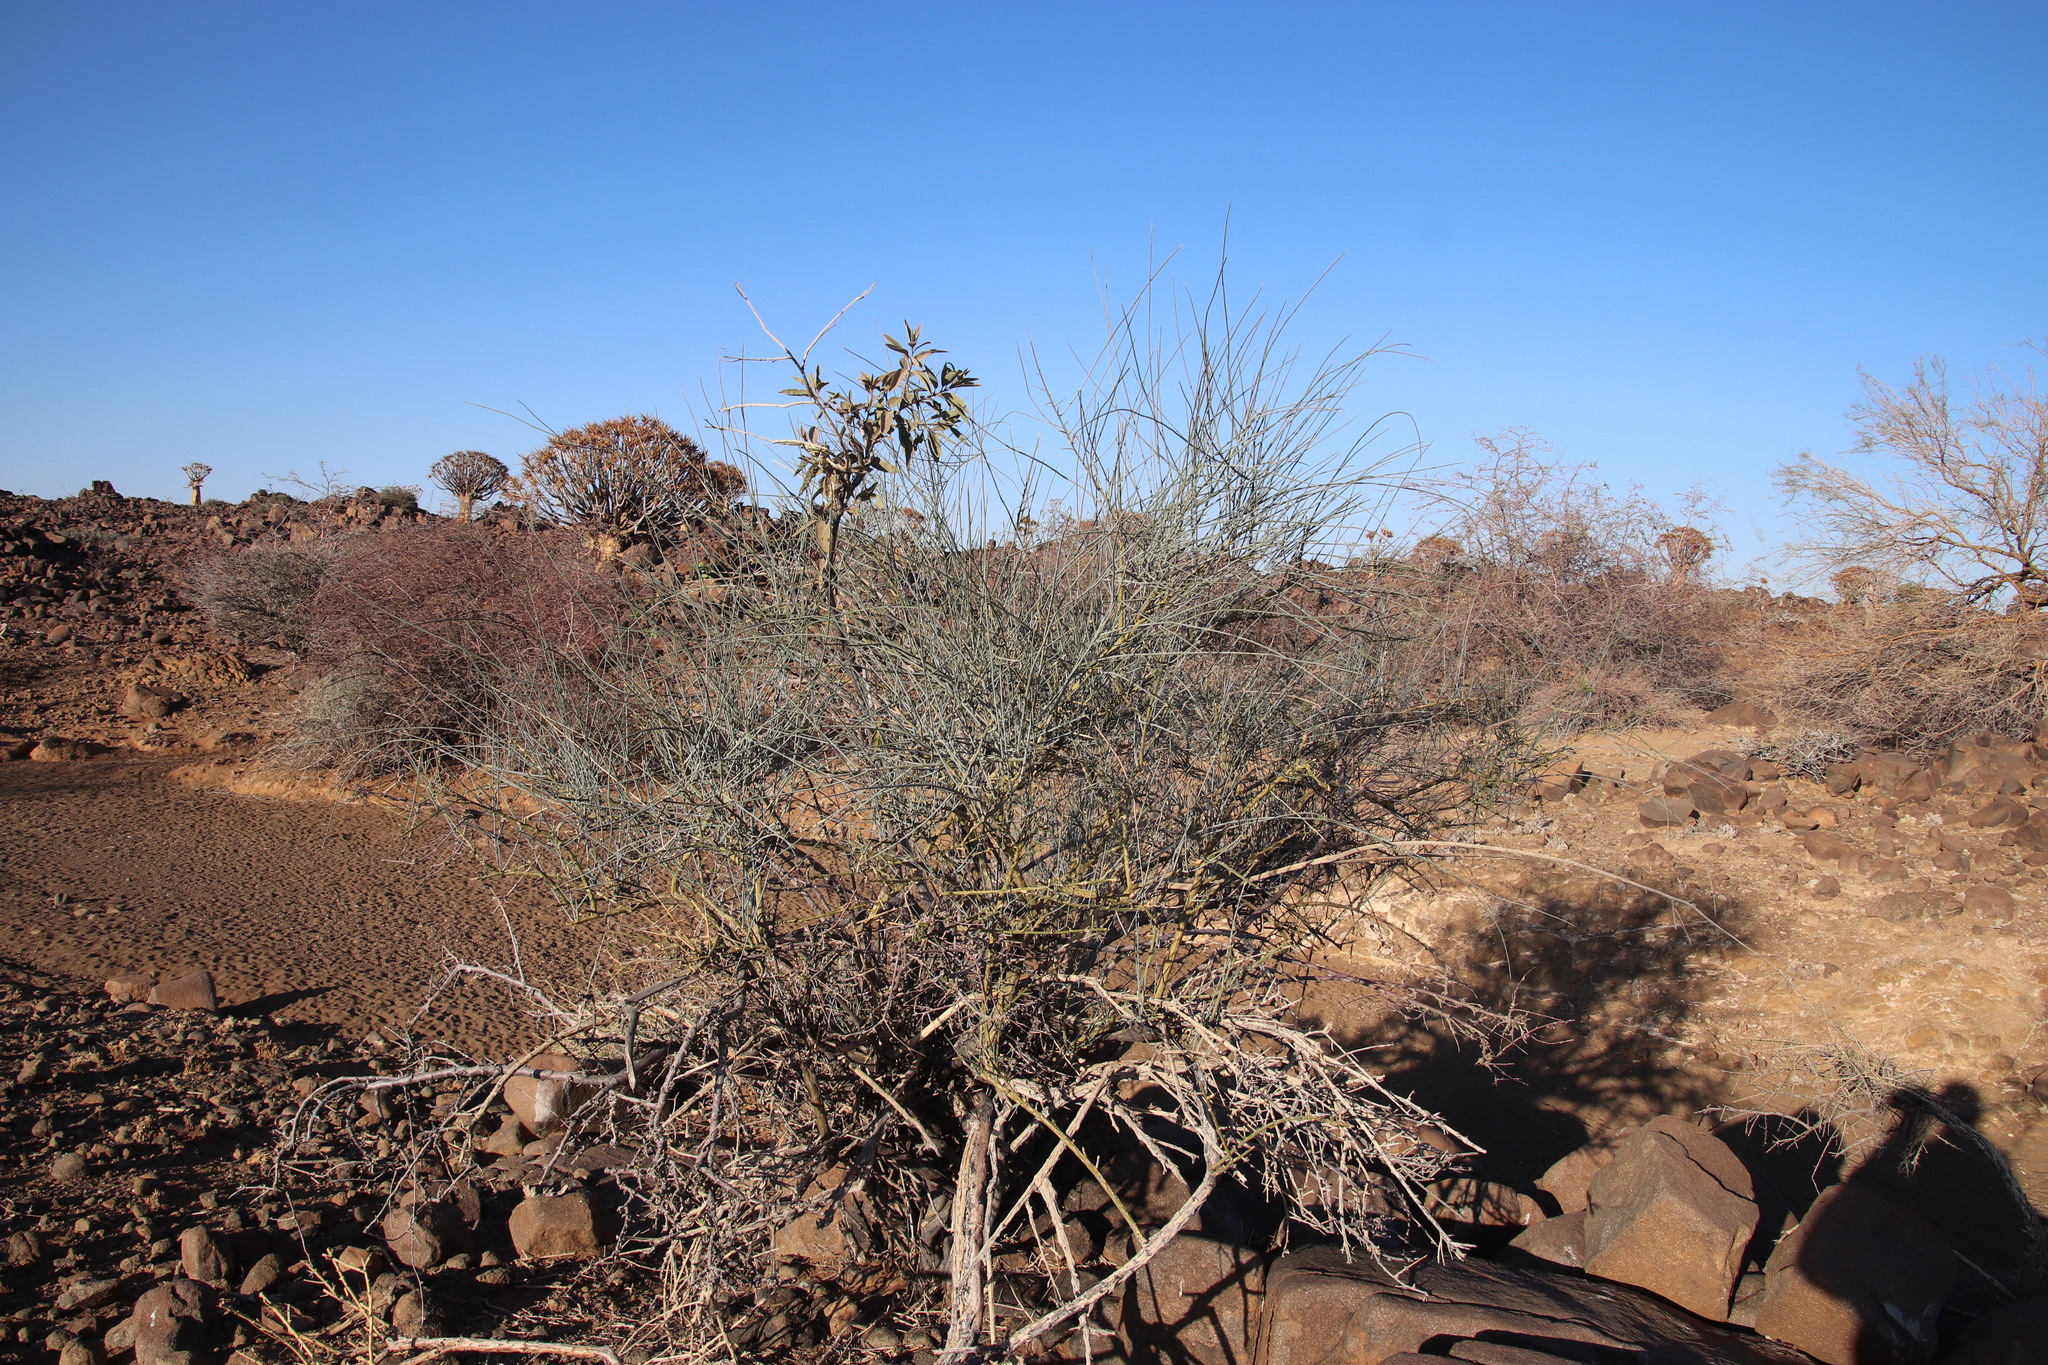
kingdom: Plantae
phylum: Tracheophyta
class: Magnoliopsida
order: Brassicales
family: Capparaceae
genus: Cadaba
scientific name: Cadaba aphylla
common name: Black storm
